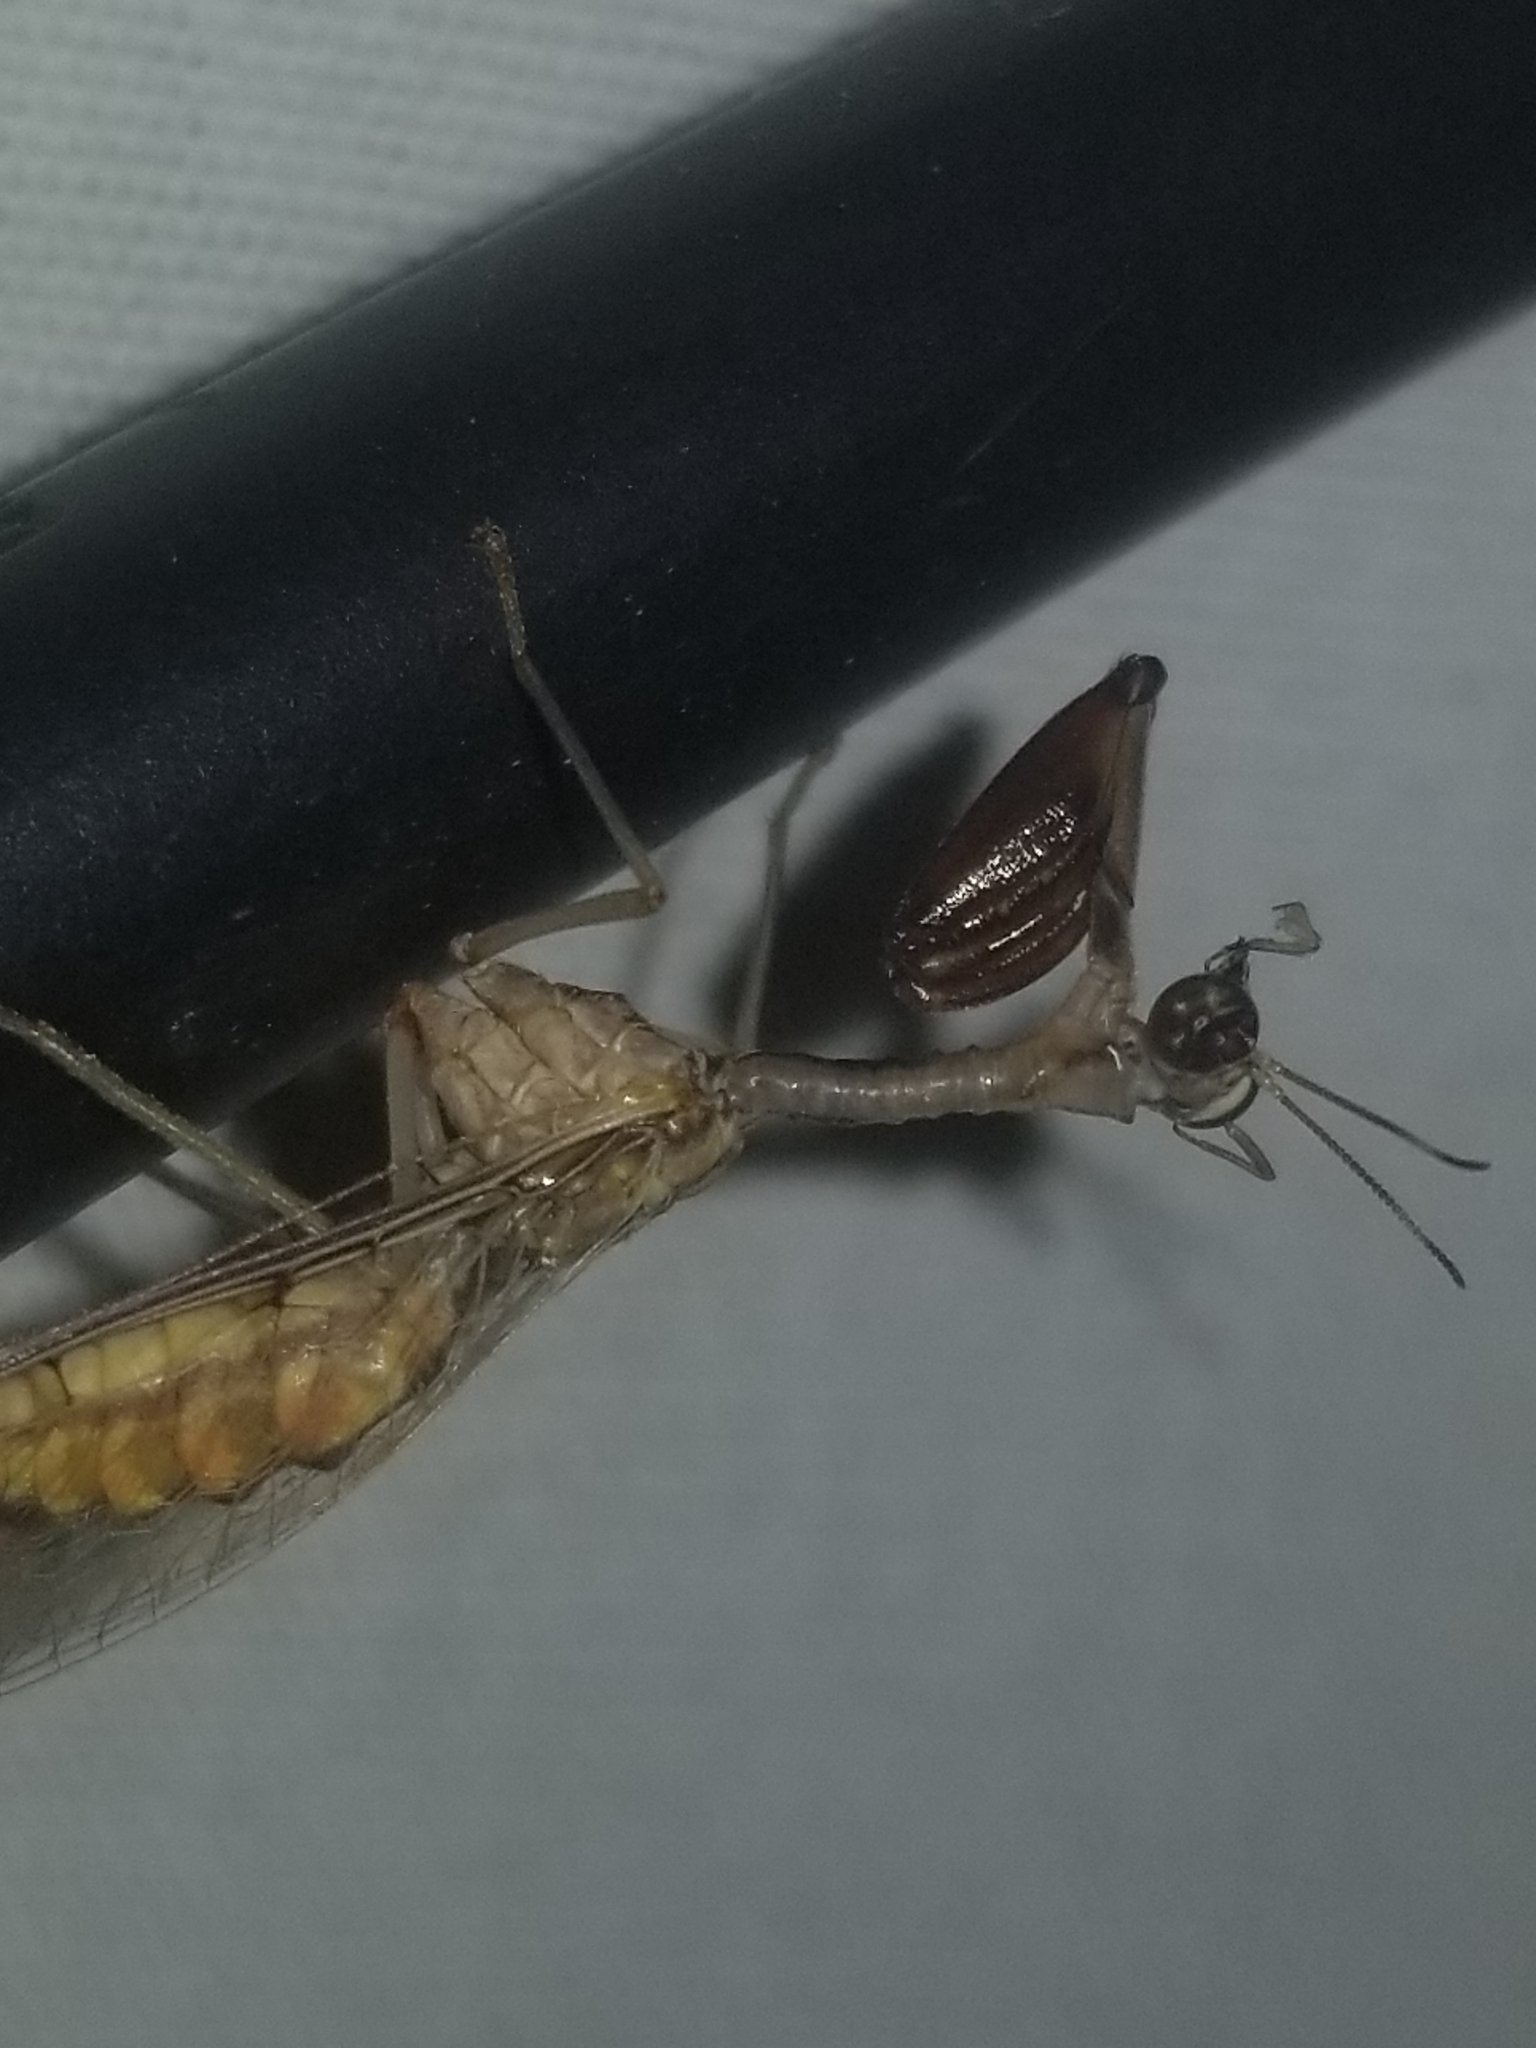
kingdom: Animalia
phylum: Arthropoda
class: Insecta
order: Neuroptera
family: Mantispidae
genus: Dicromantispa
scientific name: Dicromantispa interrupta
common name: Four-spotted mantidfly
